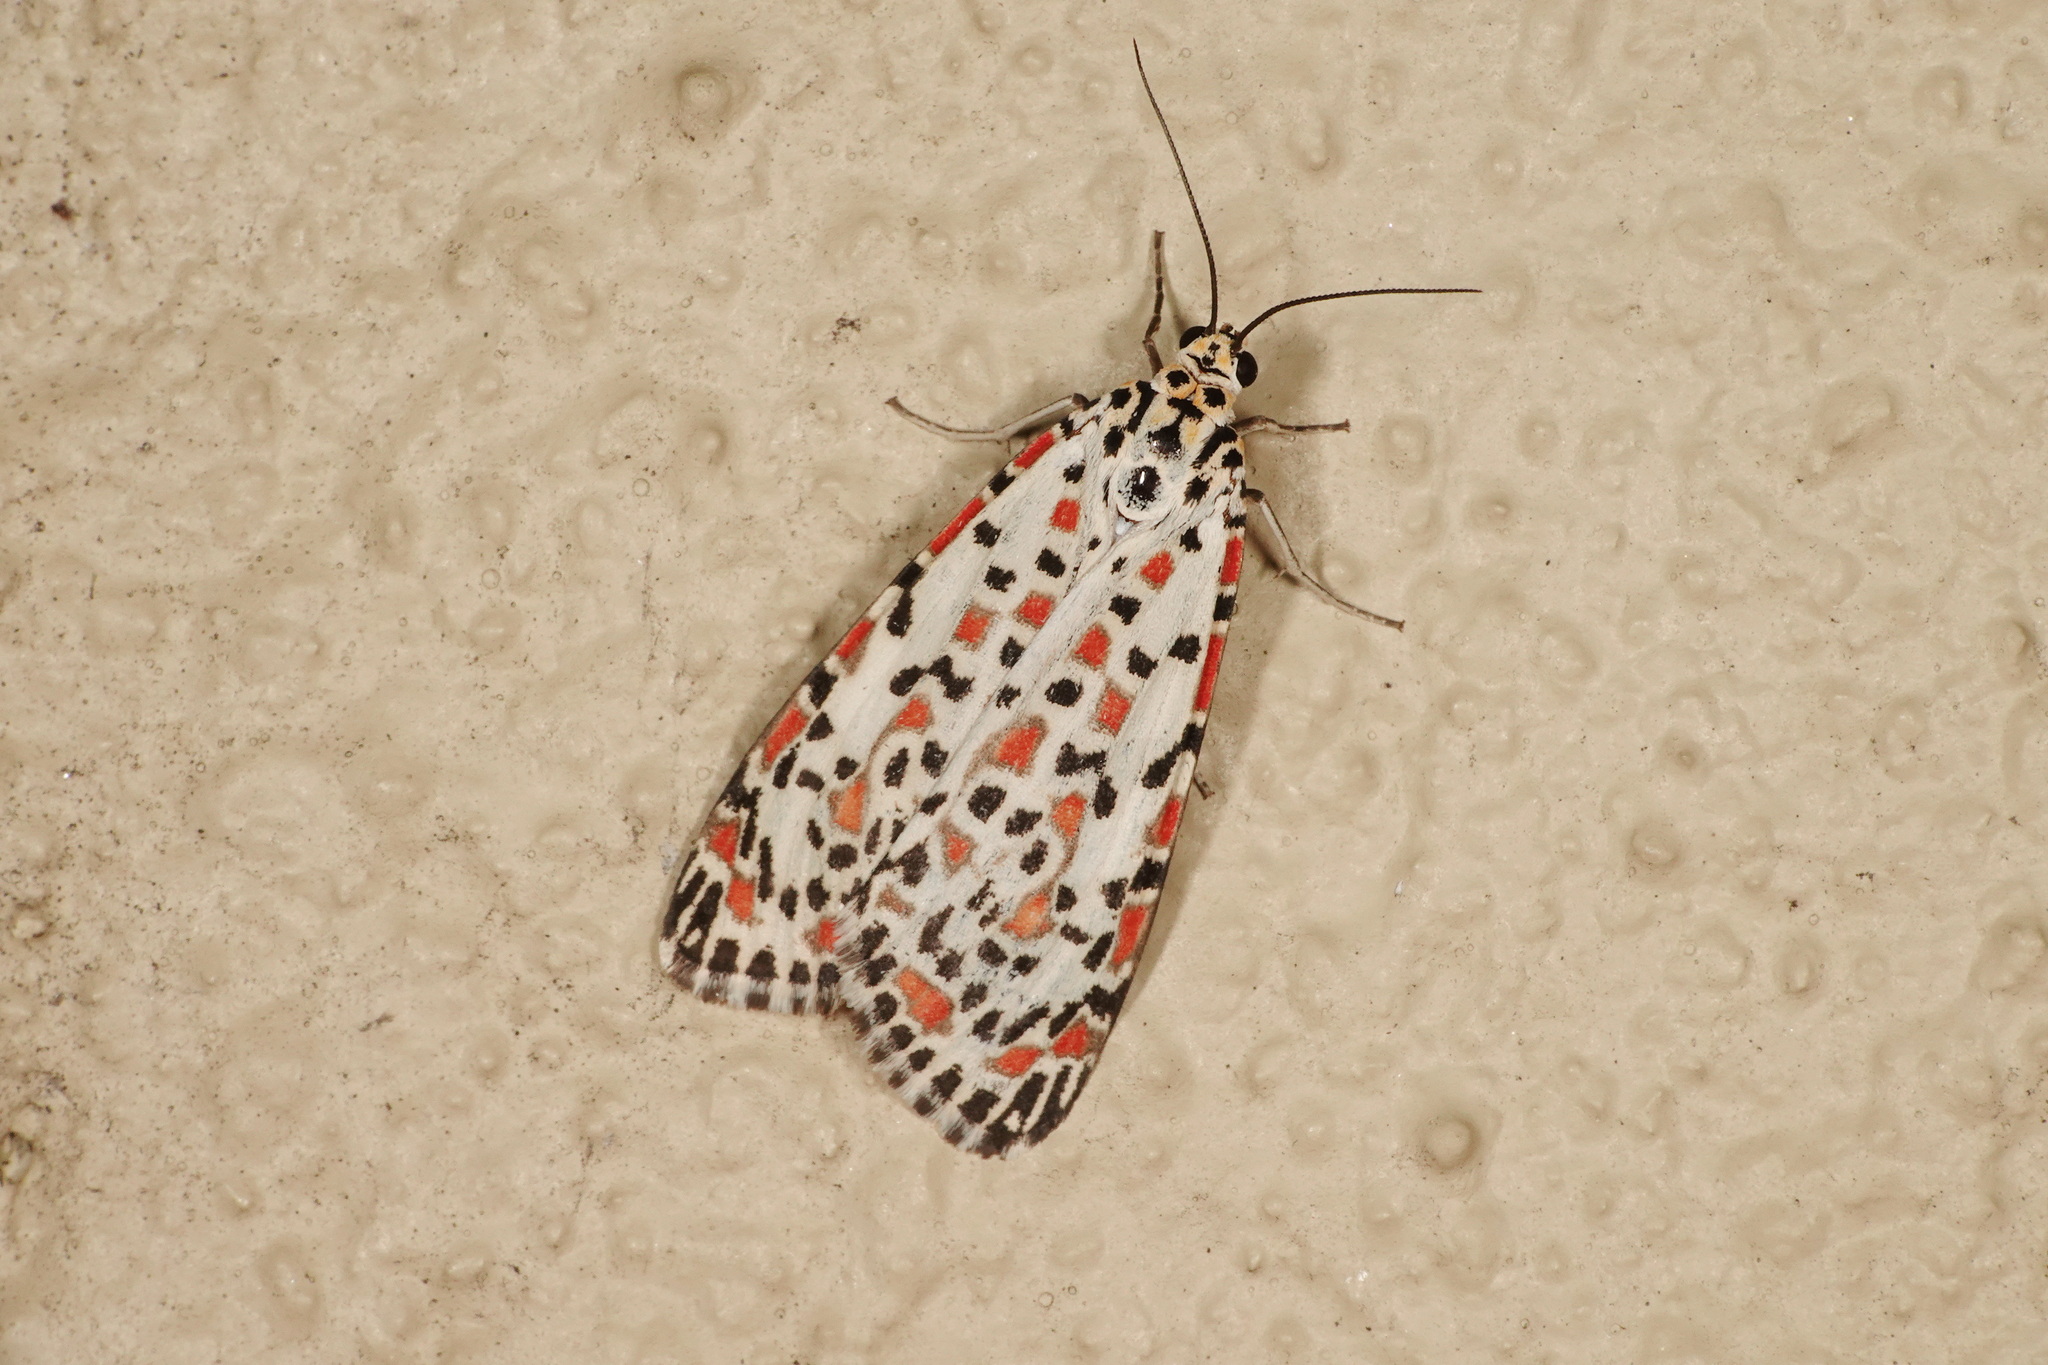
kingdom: Animalia
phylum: Arthropoda
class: Insecta
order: Lepidoptera
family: Erebidae
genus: Utetheisa
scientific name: Utetheisa pulchelloides
